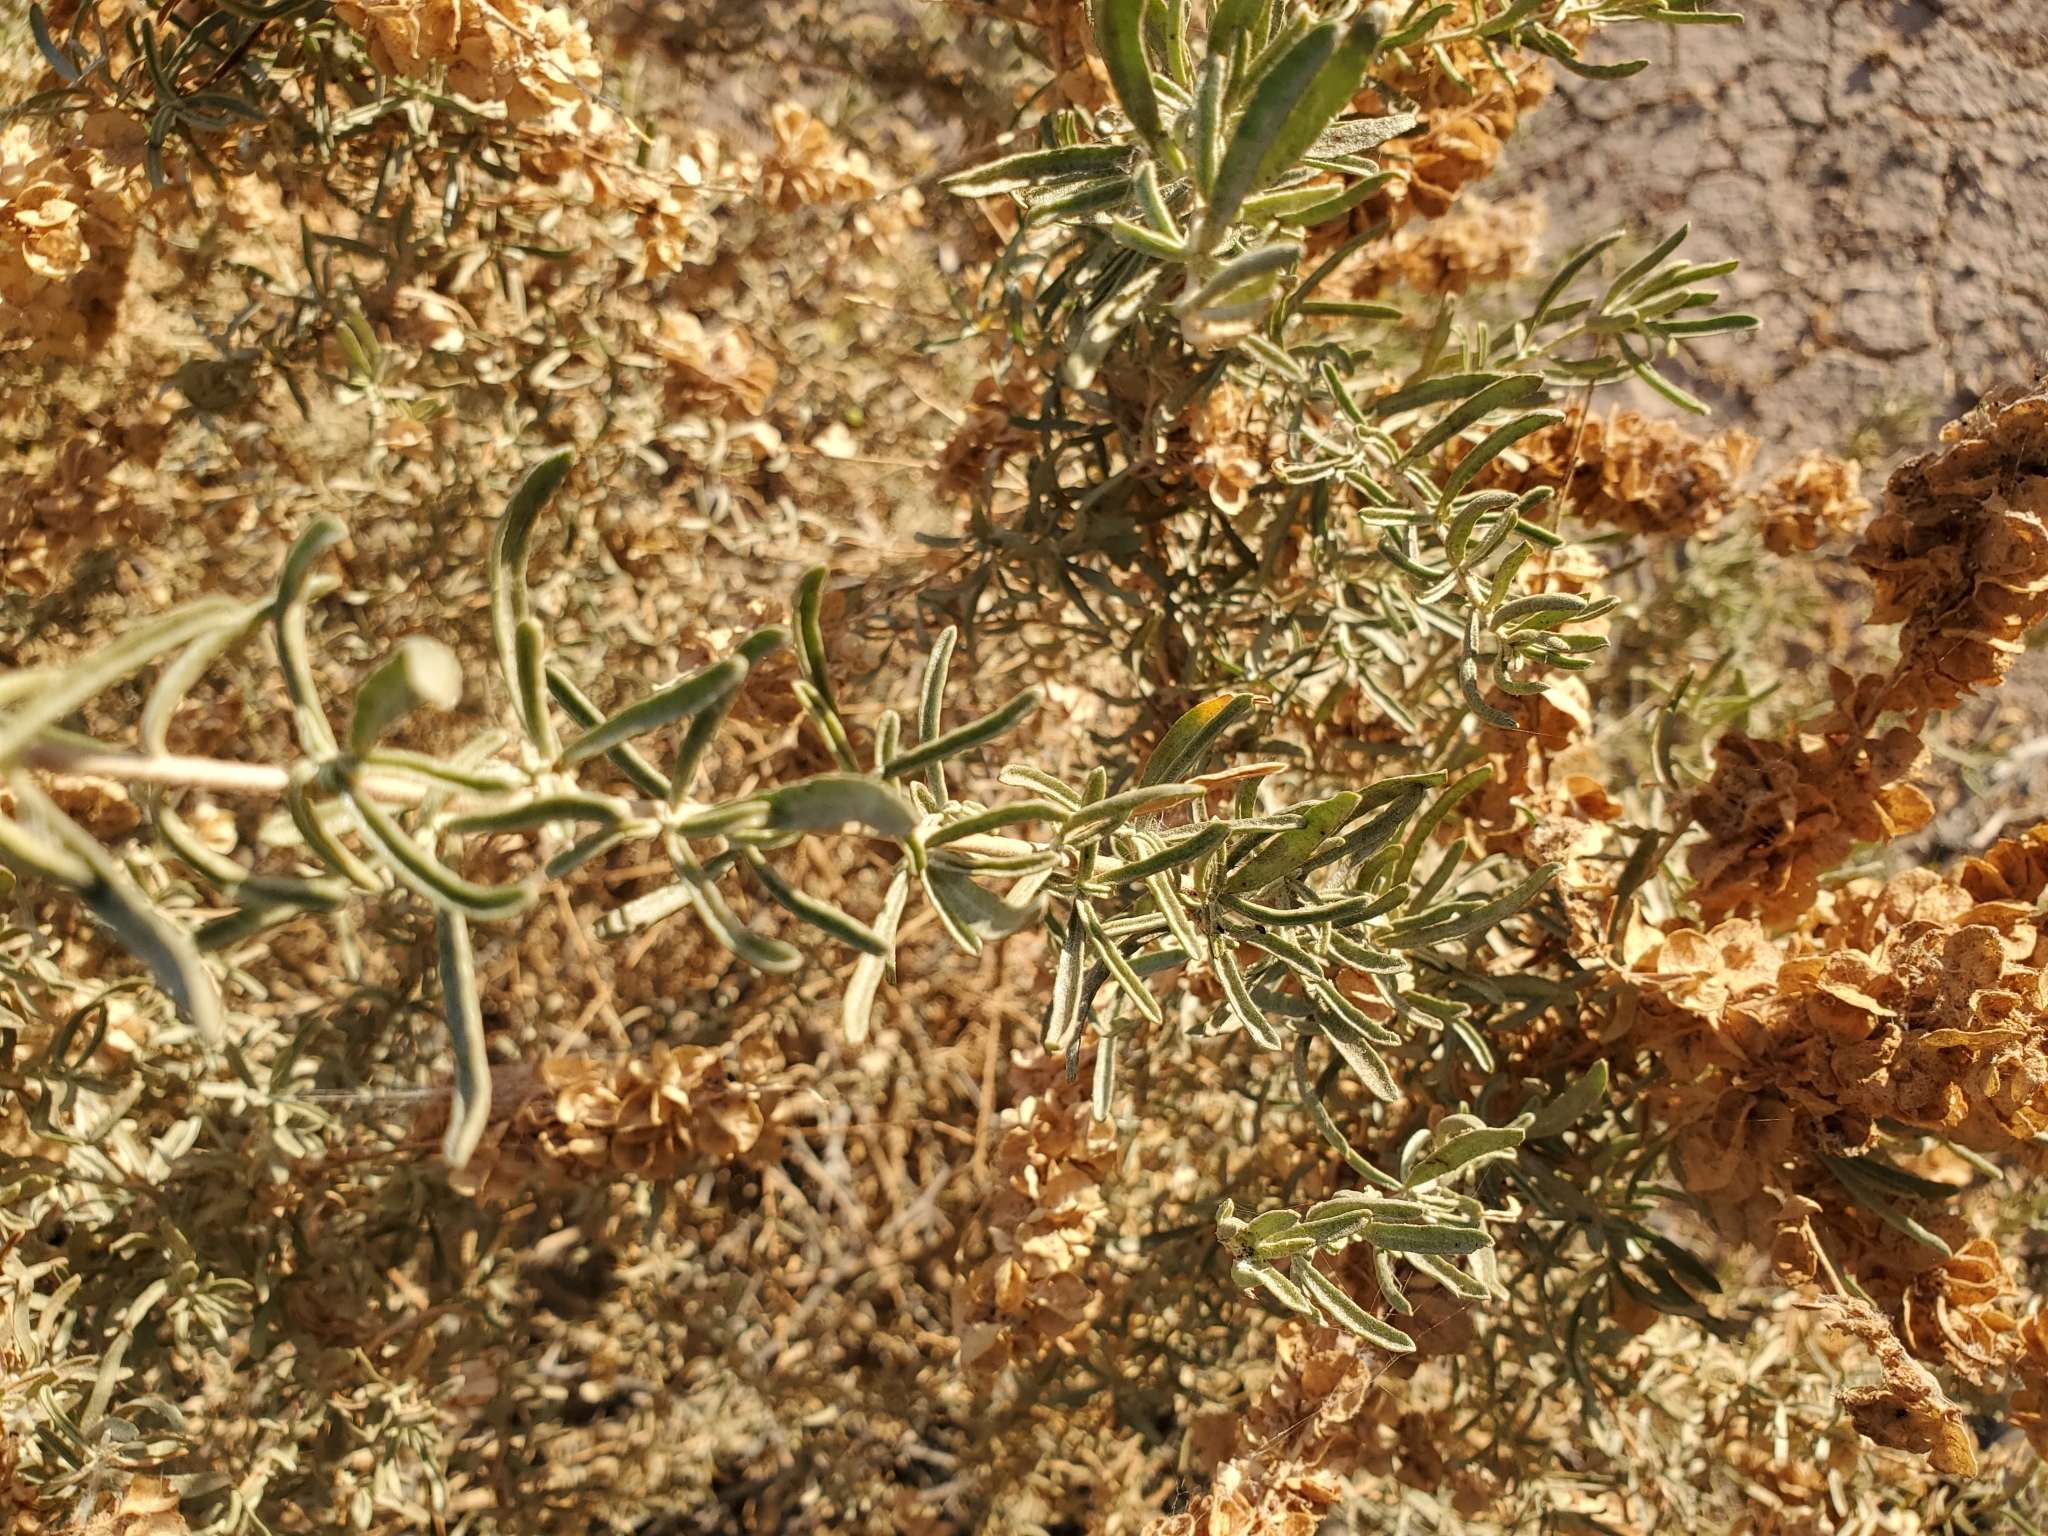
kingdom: Plantae
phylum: Tracheophyta
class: Magnoliopsida
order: Caryophyllales
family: Amaranthaceae
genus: Atriplex
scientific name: Atriplex canescens
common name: Four-wing saltbush
